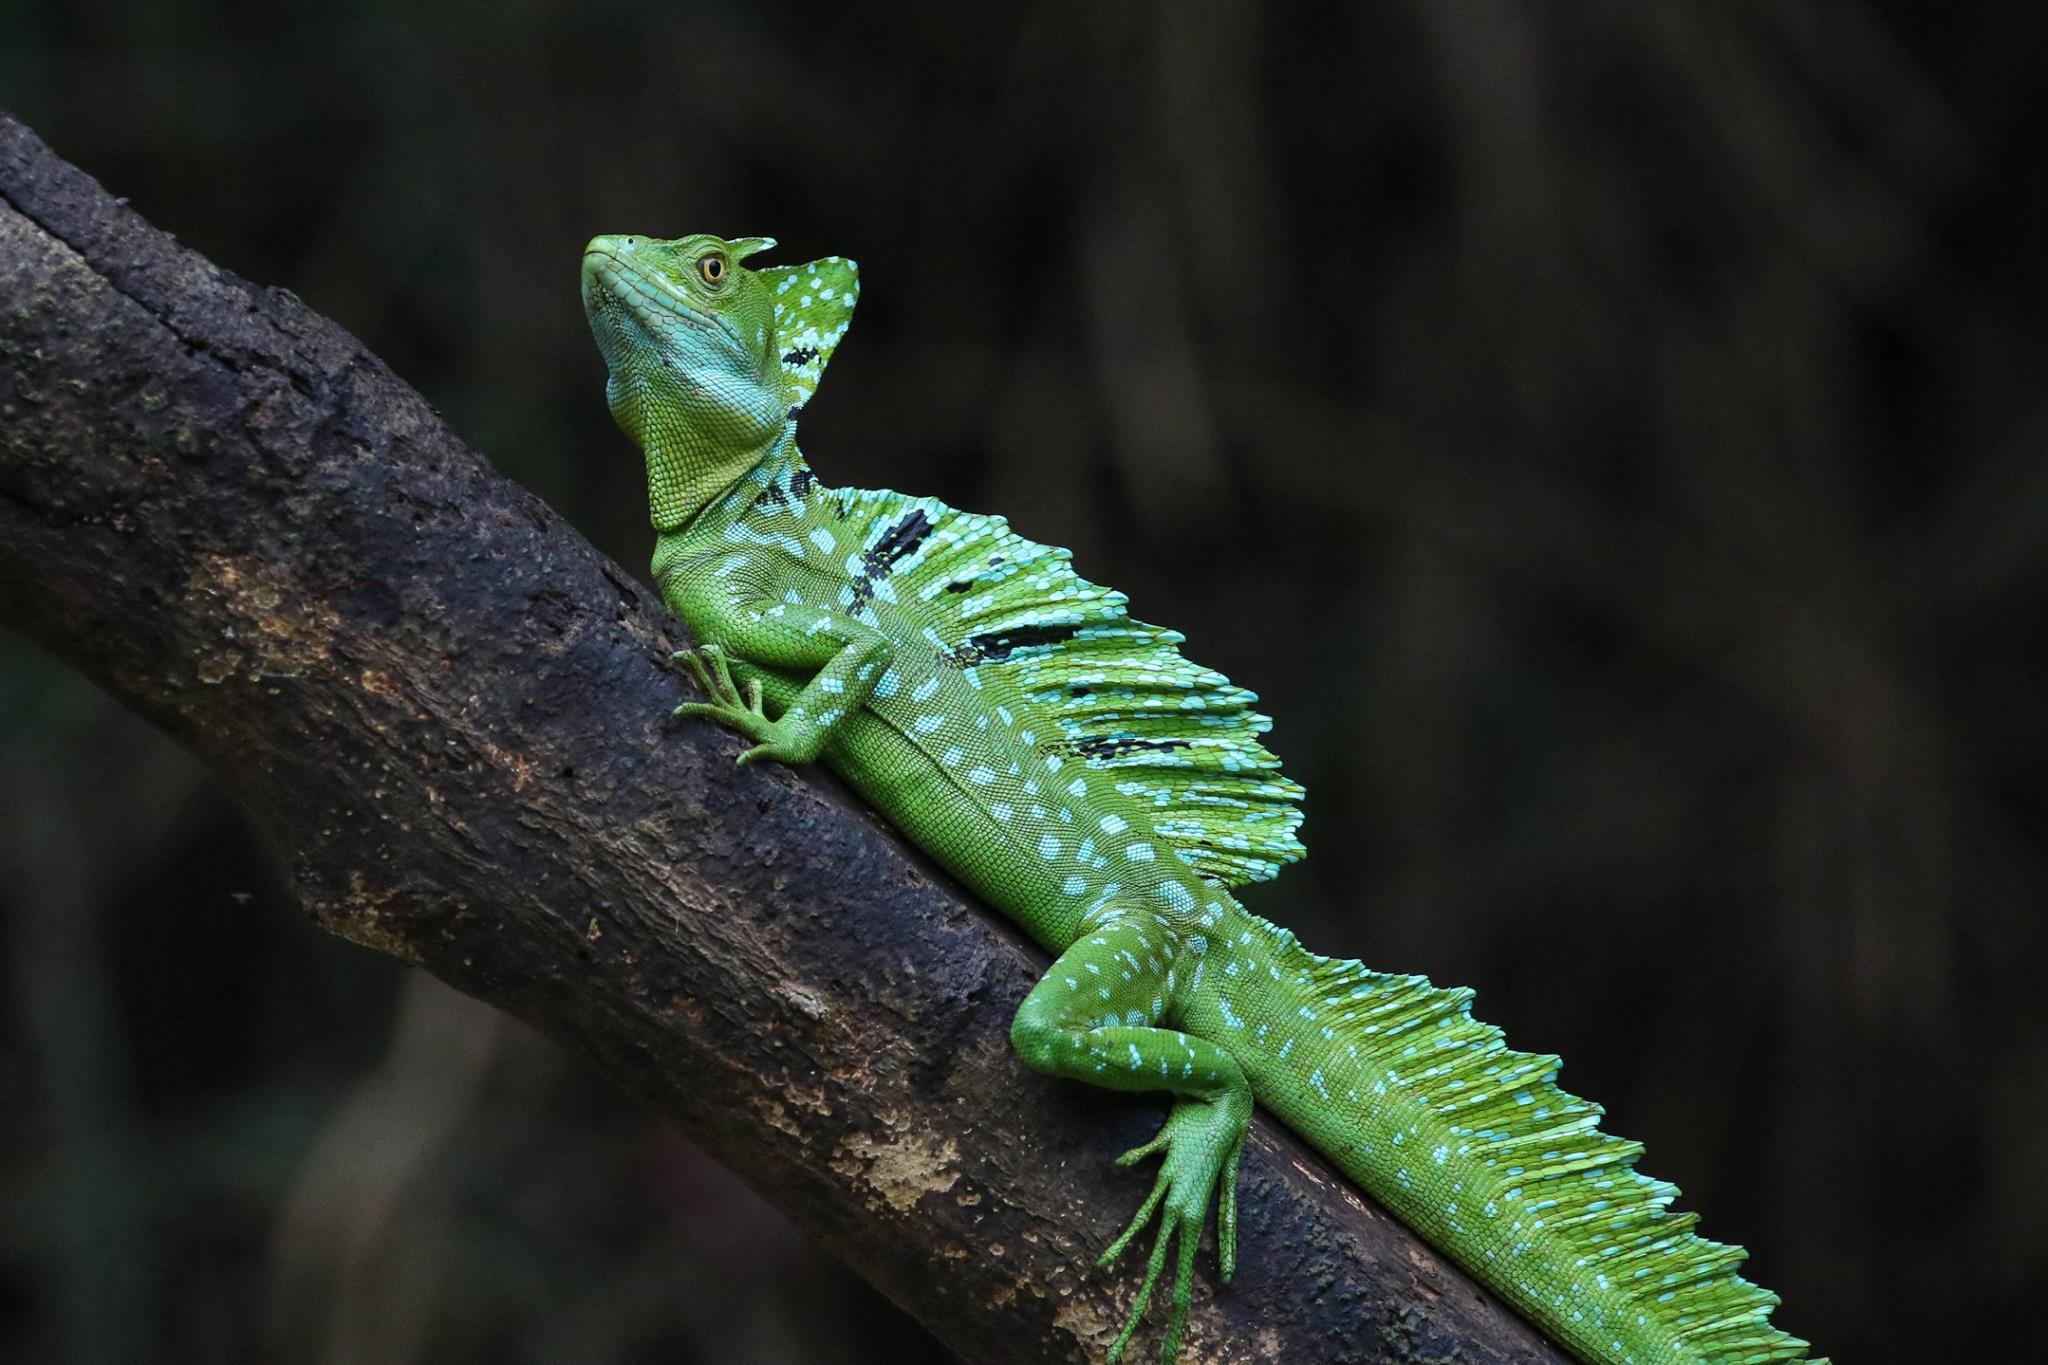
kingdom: Animalia
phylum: Chordata
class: Squamata
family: Corytophanidae
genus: Basiliscus
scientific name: Basiliscus plumifrons
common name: Green basilisk
